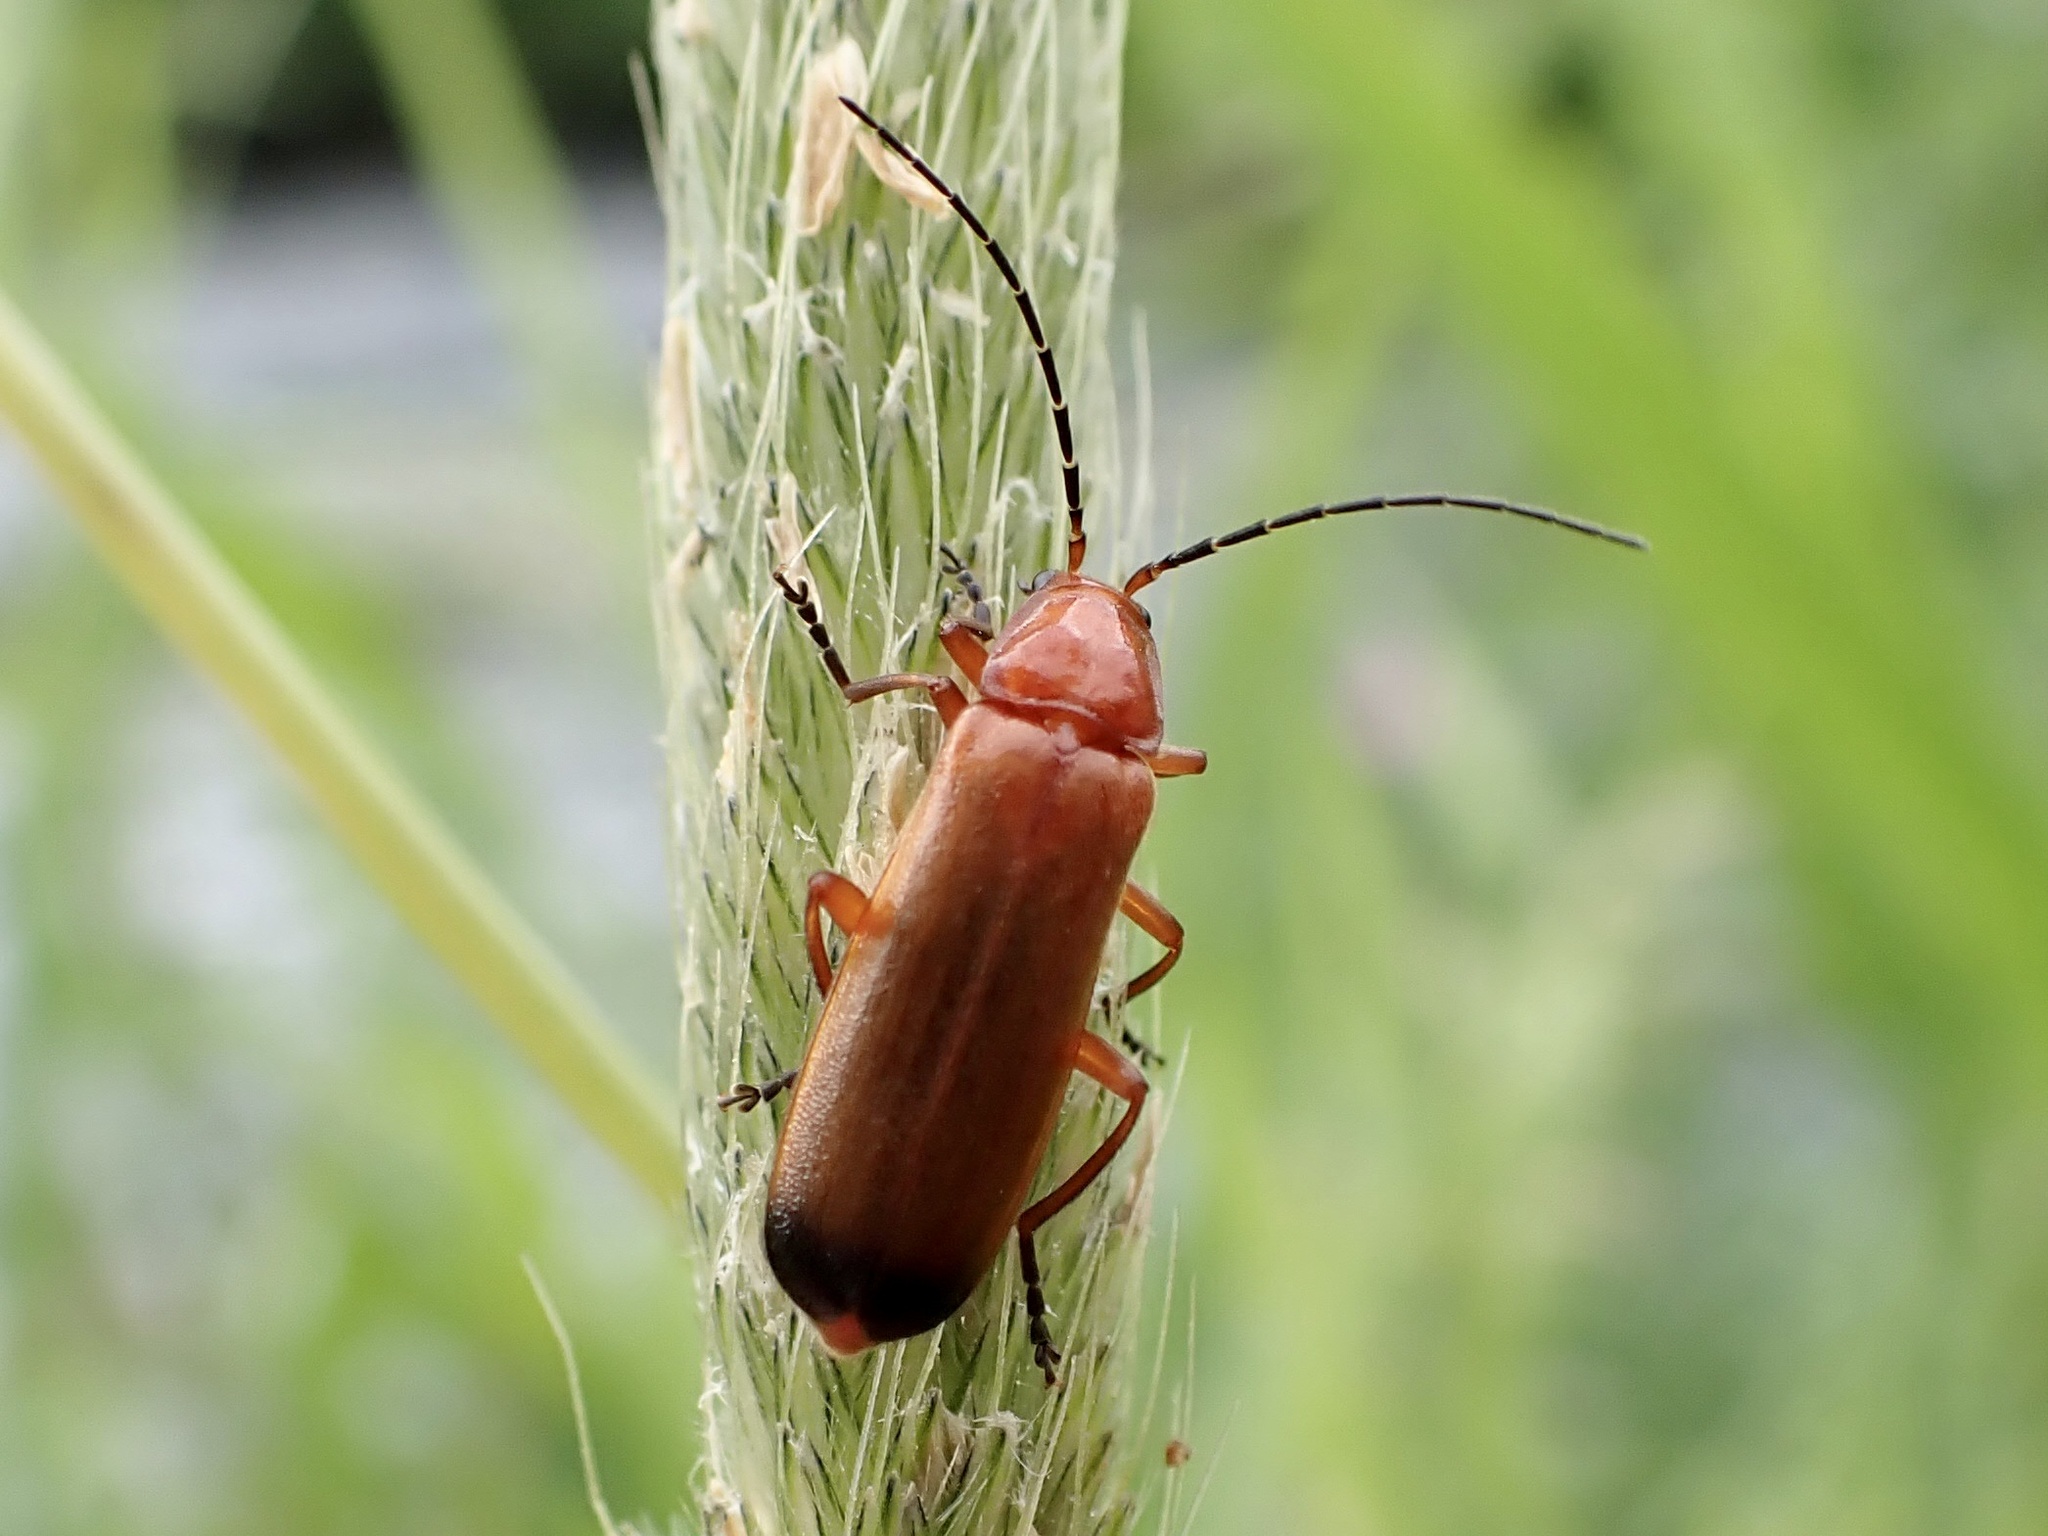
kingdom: Animalia
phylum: Arthropoda
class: Insecta
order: Coleoptera
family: Cantharidae
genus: Rhagonycha
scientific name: Rhagonycha fulva
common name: Common red soldier beetle
